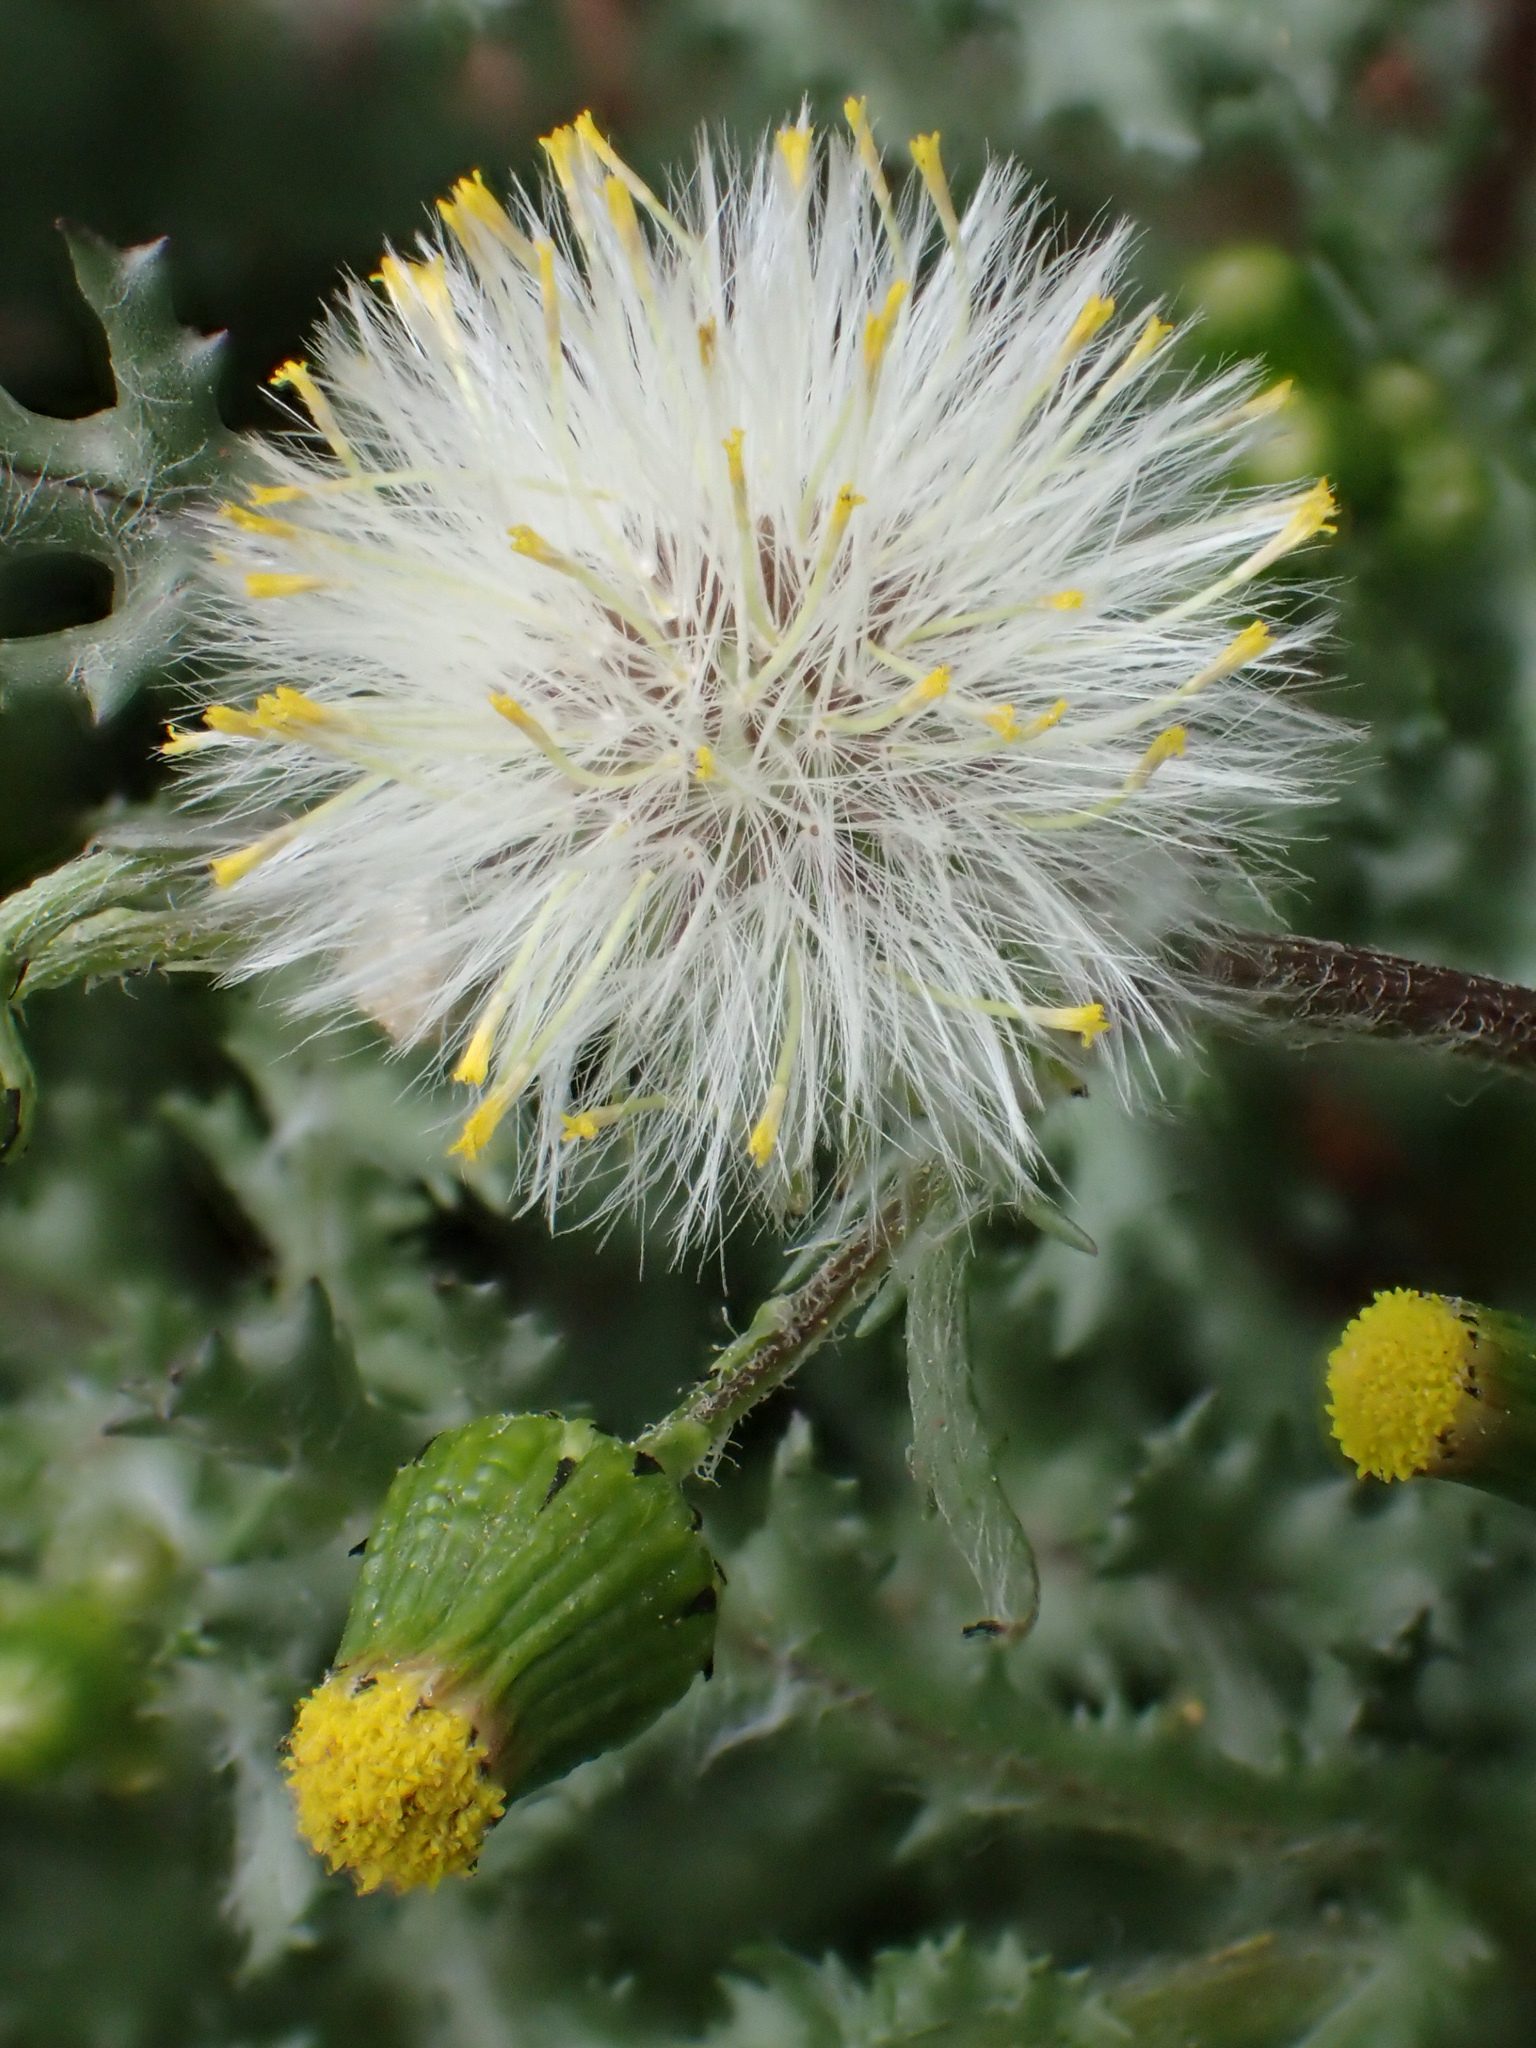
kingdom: Plantae
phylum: Tracheophyta
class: Magnoliopsida
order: Asterales
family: Asteraceae
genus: Senecio
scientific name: Senecio vulgaris
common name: Old-man-in-the-spring
